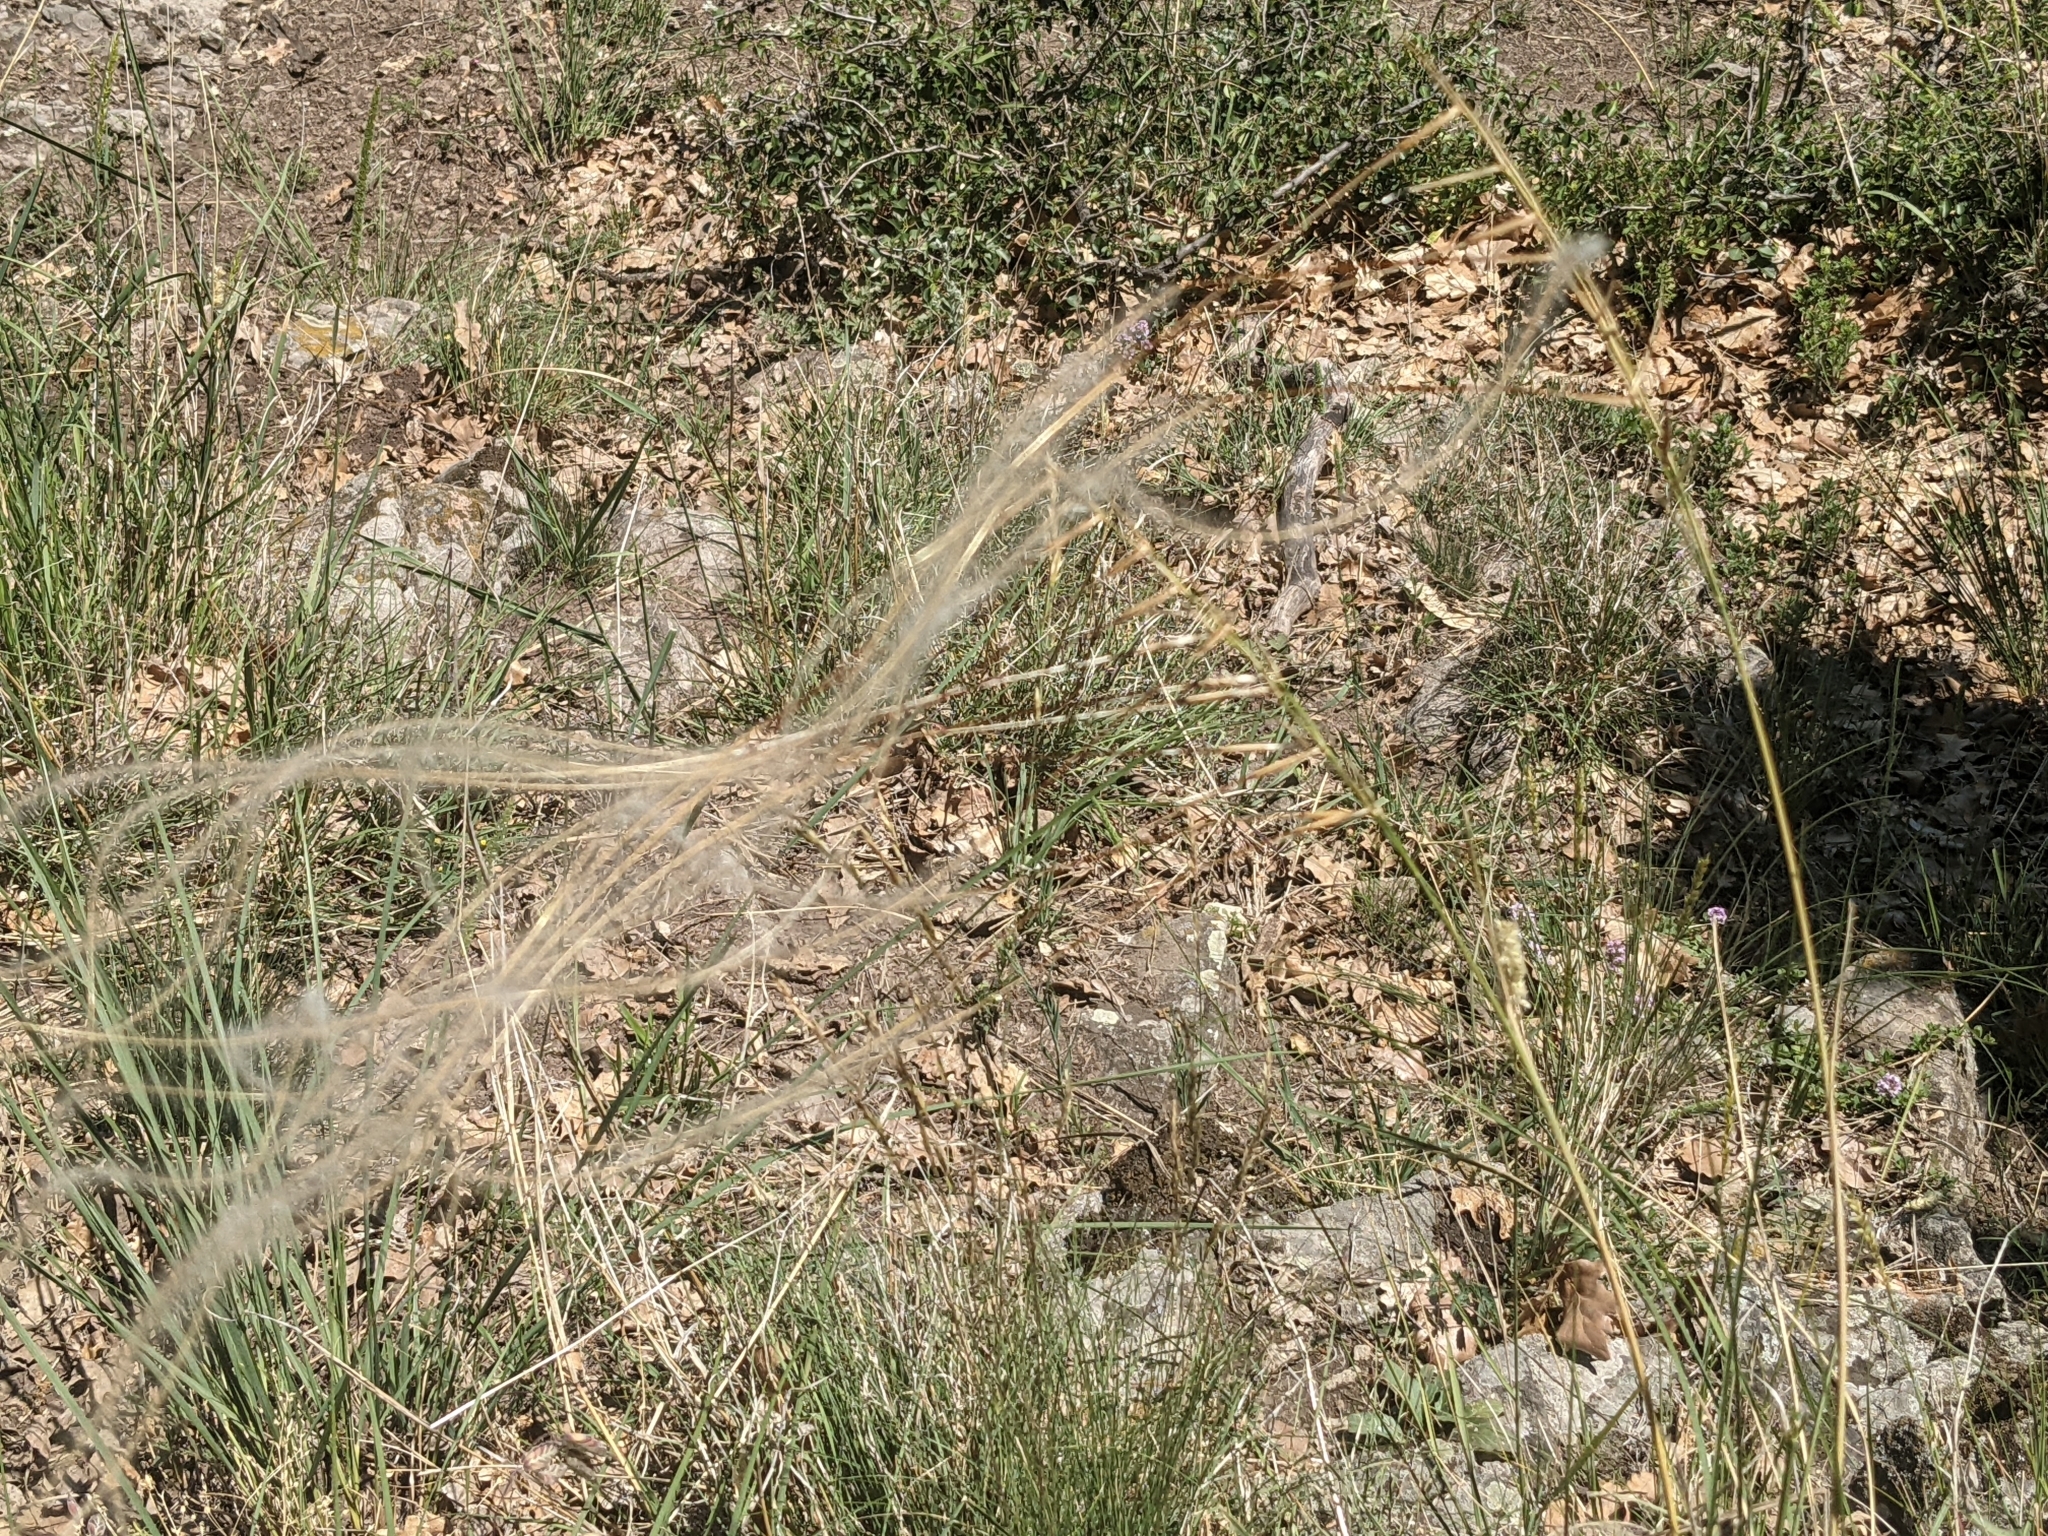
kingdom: Plantae
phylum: Tracheophyta
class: Liliopsida
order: Poales
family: Poaceae
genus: Stipa
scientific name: Stipa
